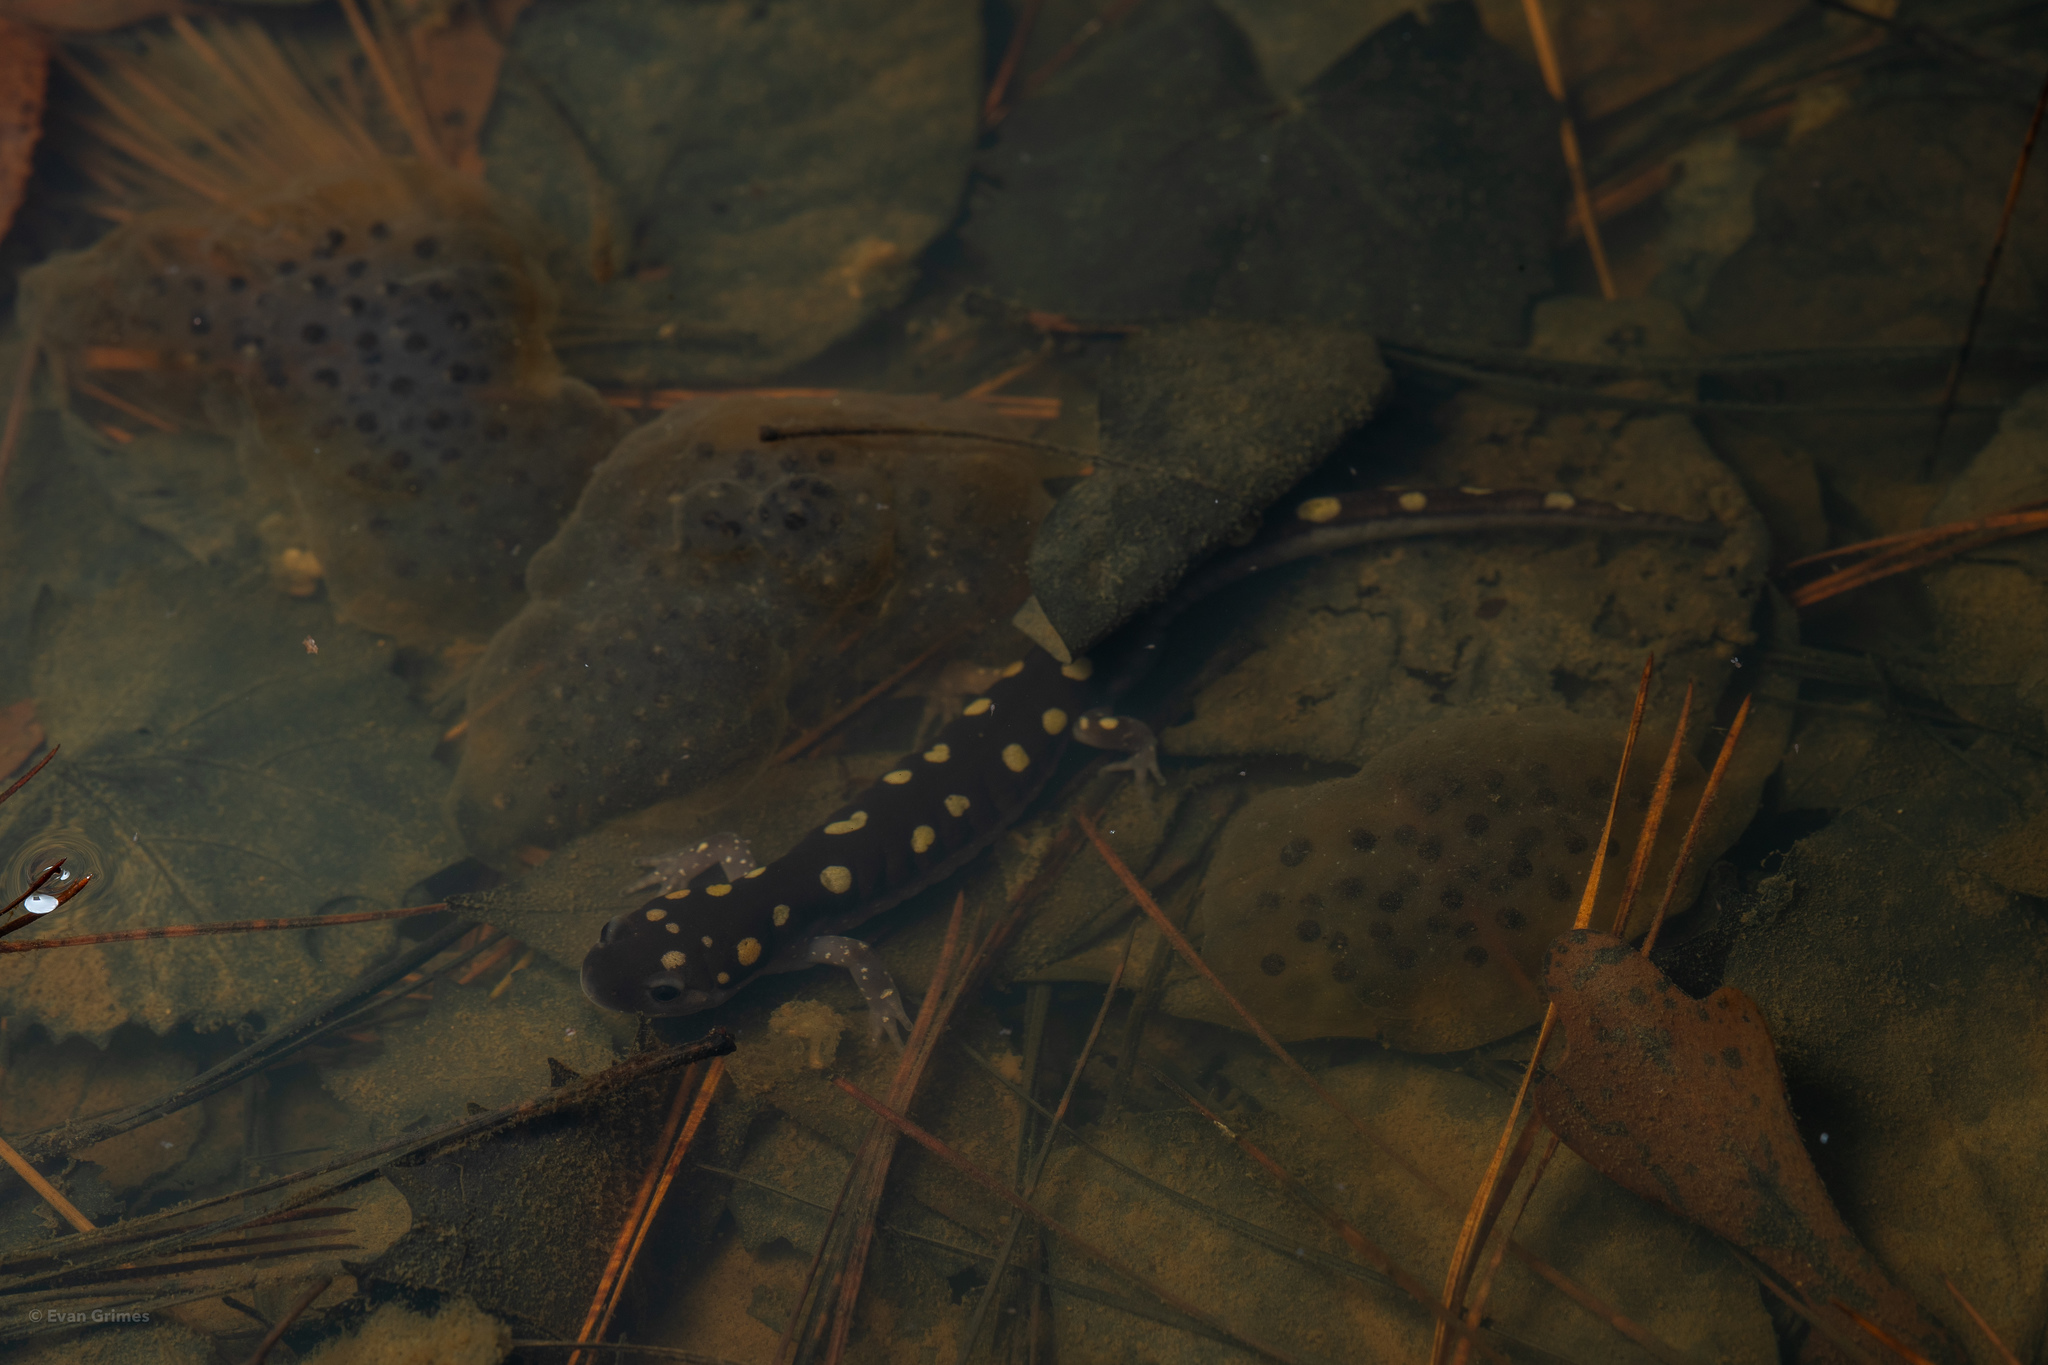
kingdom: Animalia
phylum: Chordata
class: Amphibia
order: Caudata
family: Ambystomatidae
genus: Ambystoma
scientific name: Ambystoma maculatum
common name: Spotted salamander
